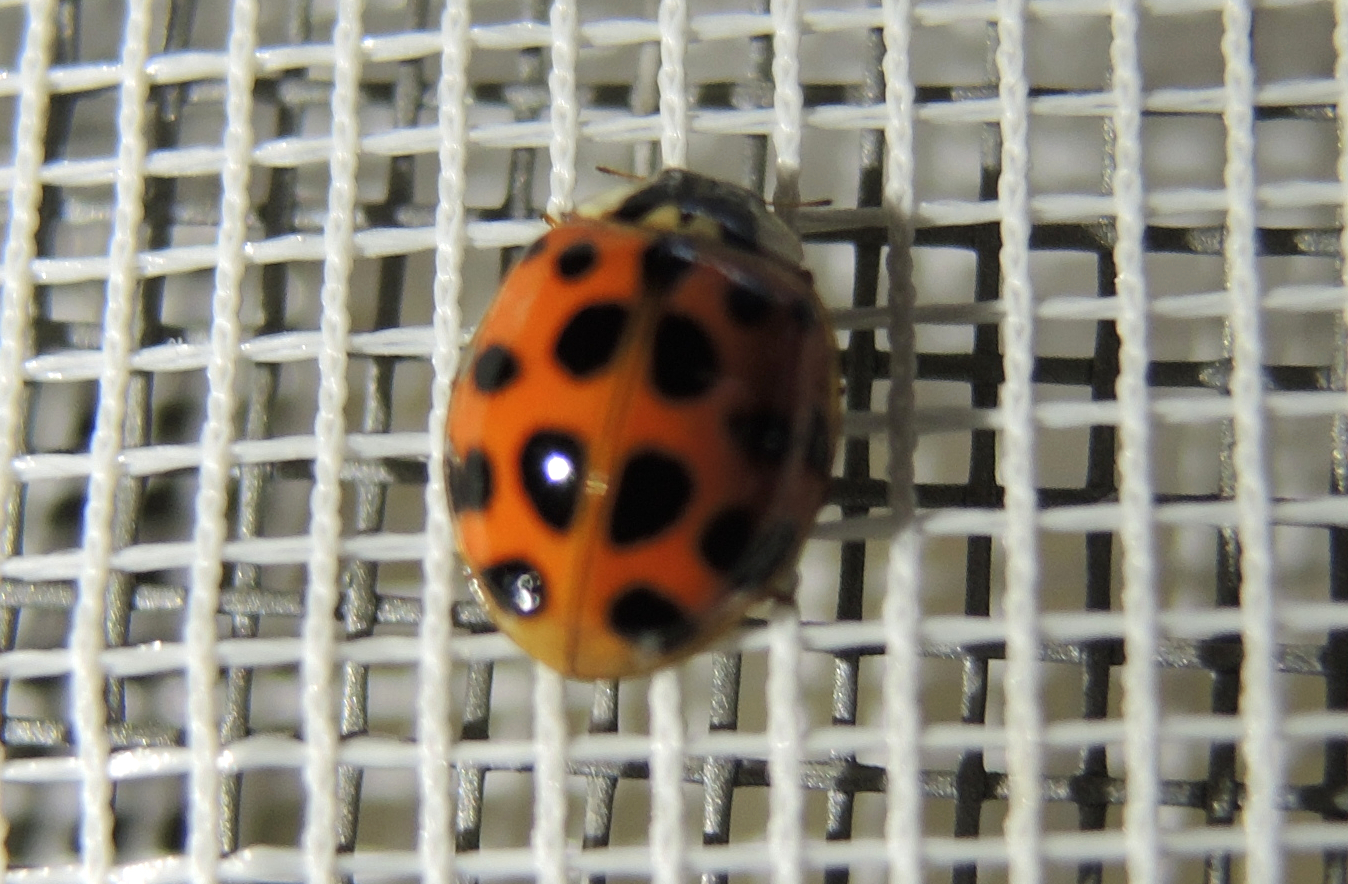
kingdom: Animalia
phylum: Arthropoda
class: Insecta
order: Coleoptera
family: Coccinellidae
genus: Harmonia
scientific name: Harmonia axyridis
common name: Harlequin ladybird
